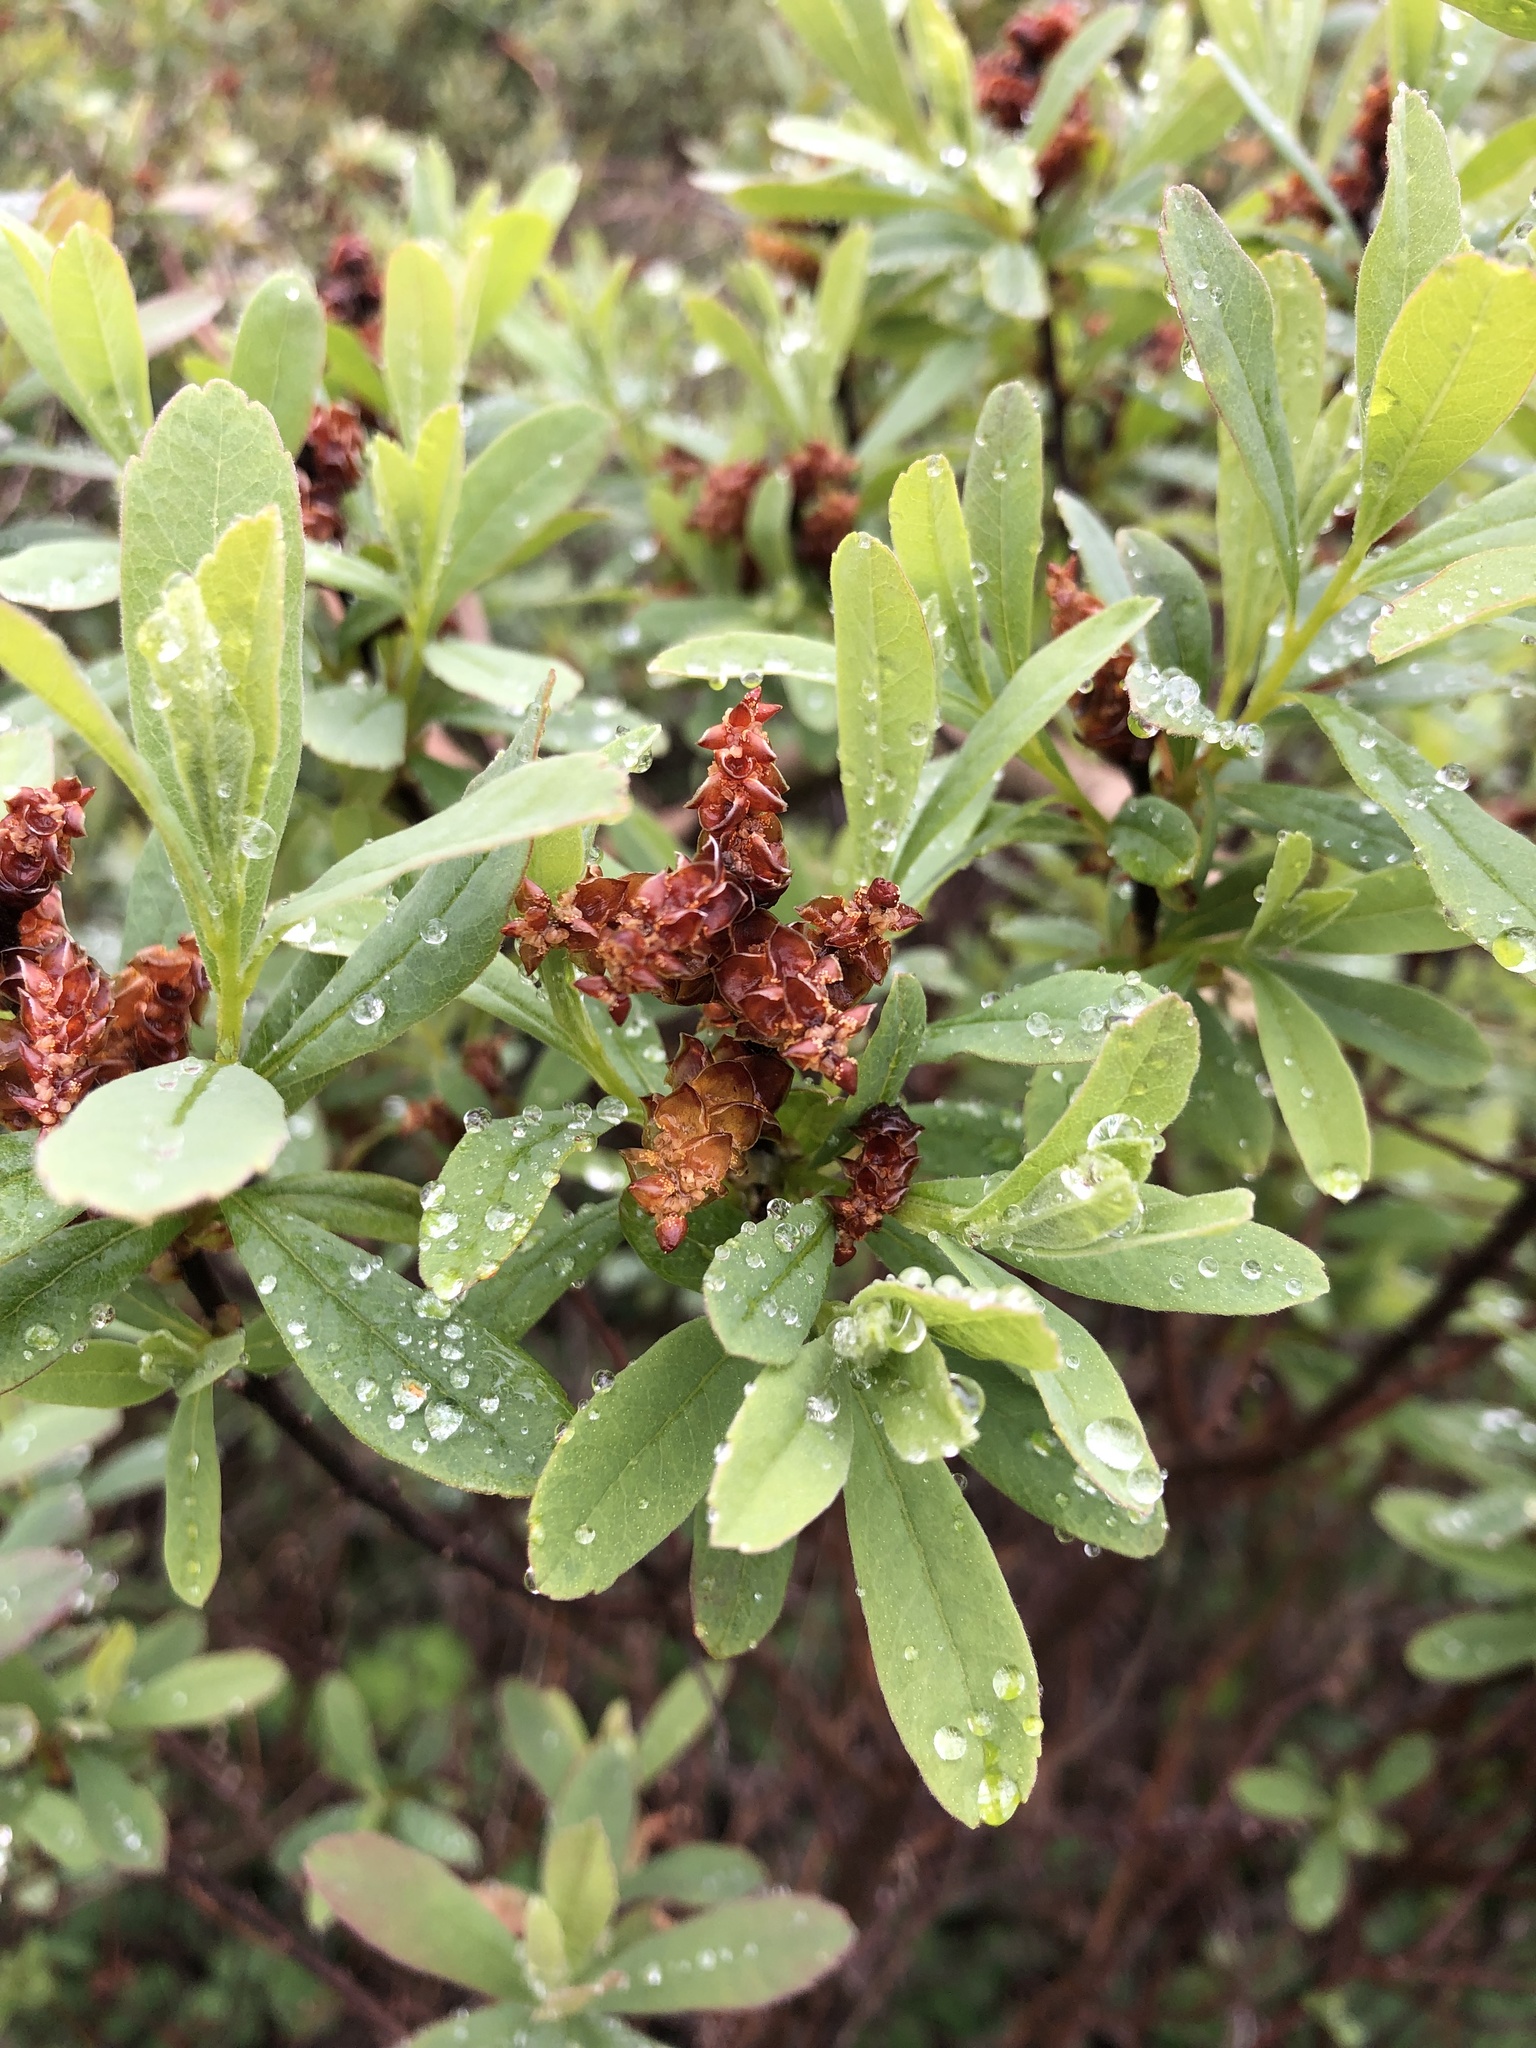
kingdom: Plantae
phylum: Tracheophyta
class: Magnoliopsida
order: Fagales
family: Myricaceae
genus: Myrica
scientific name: Myrica gale
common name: Sweet gale
